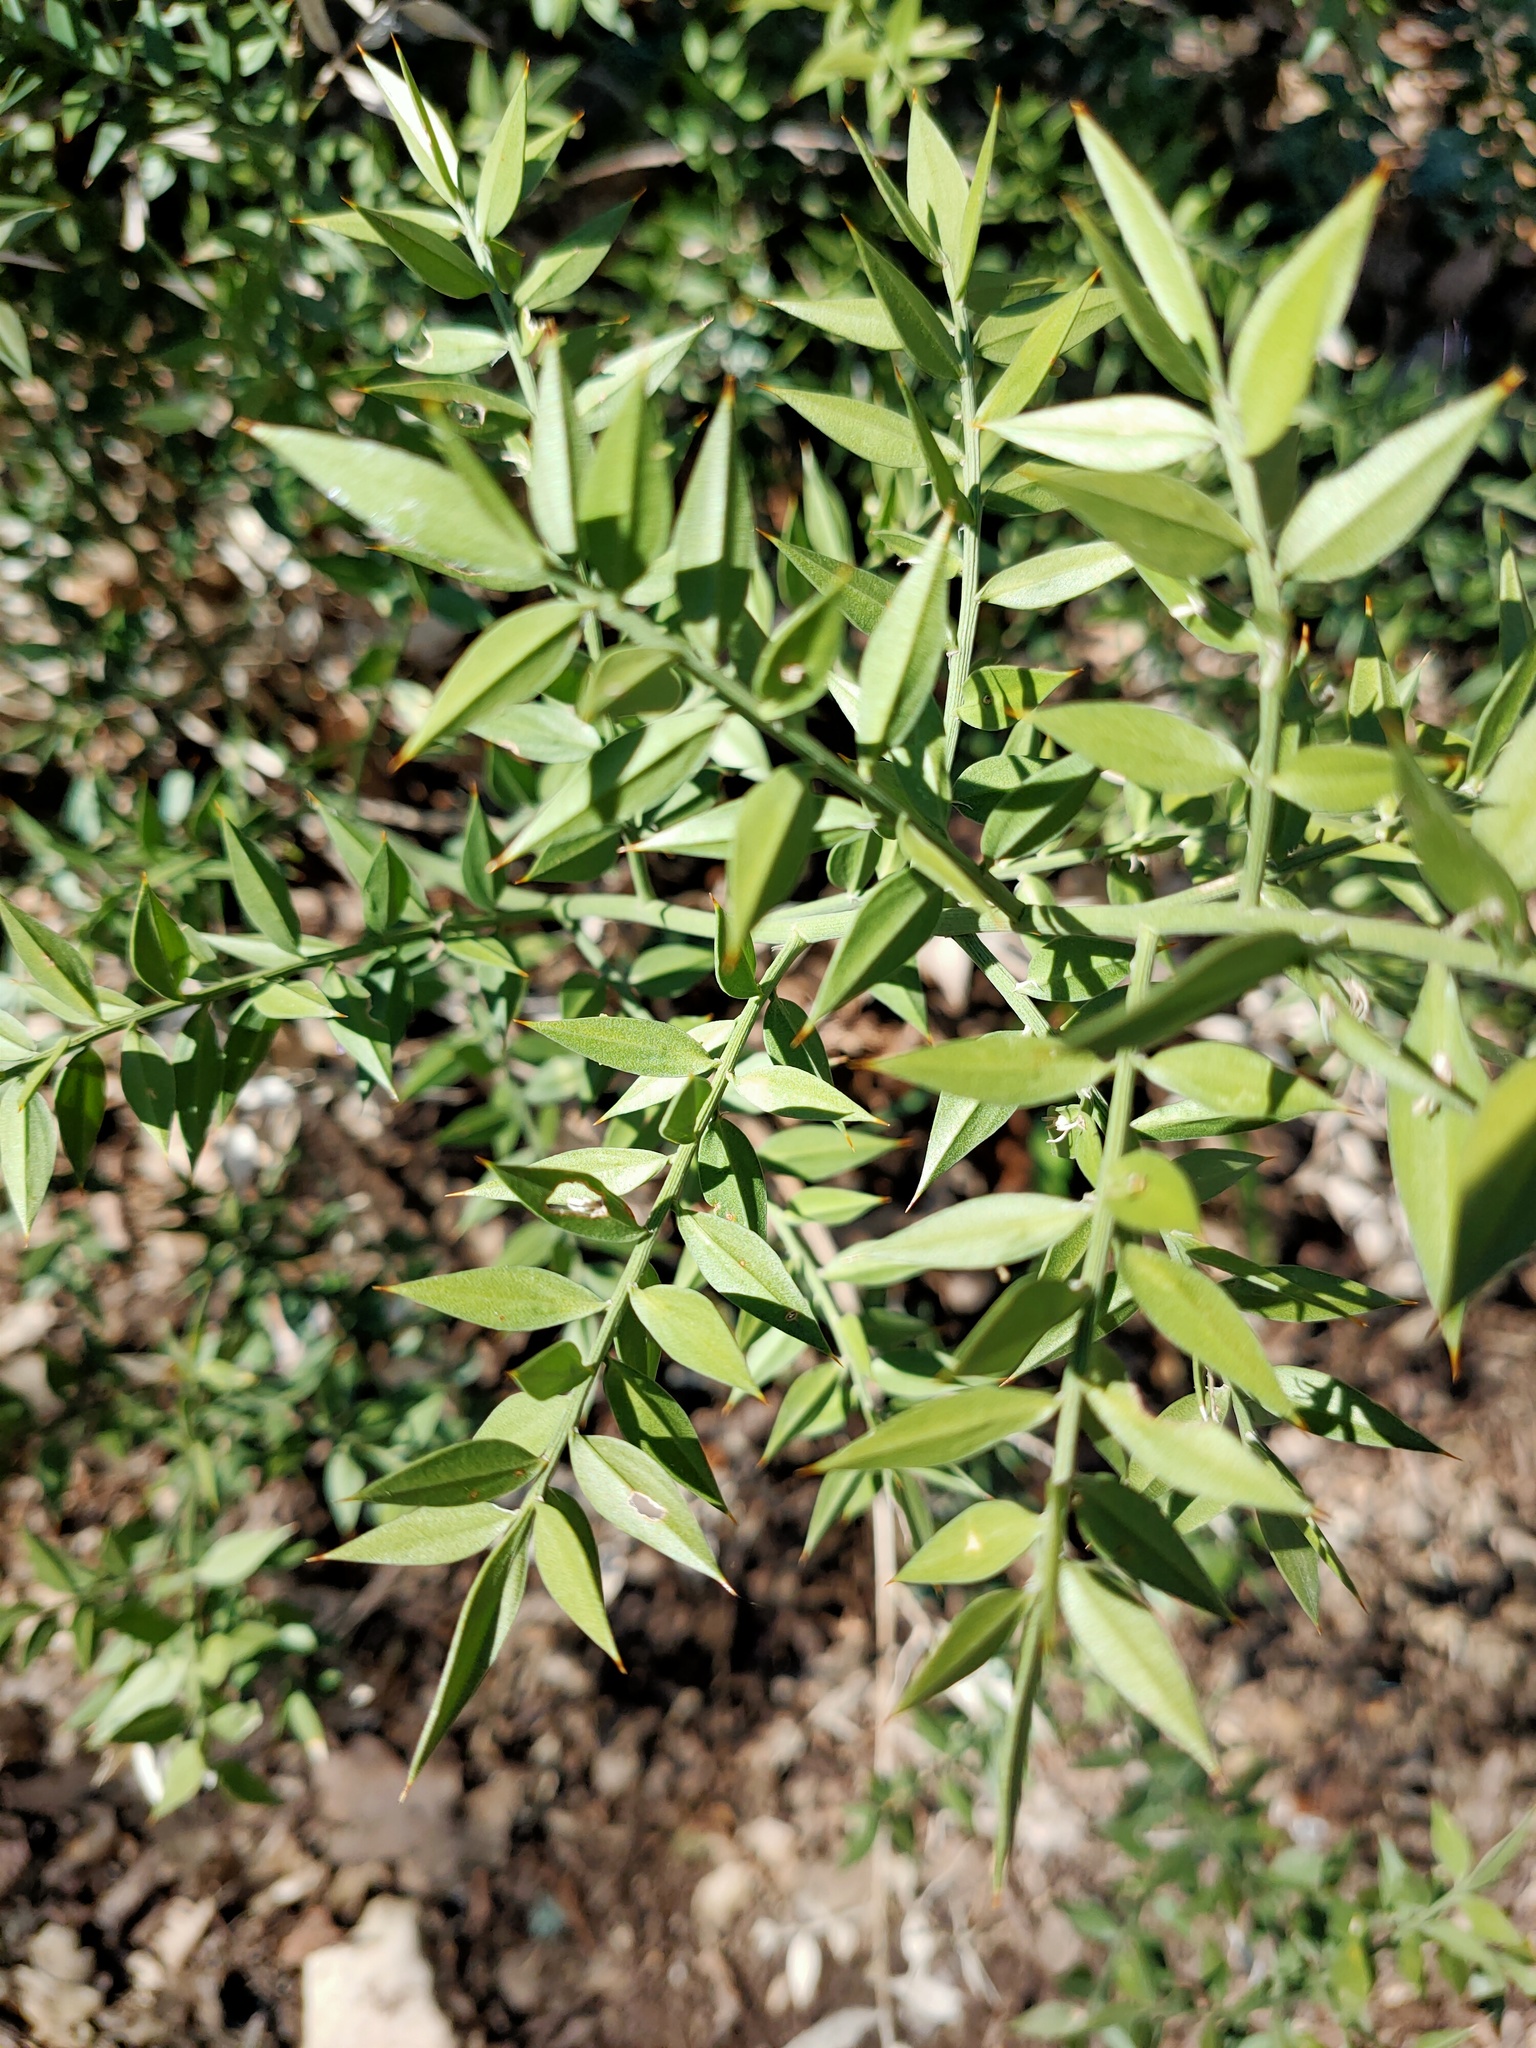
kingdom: Plantae
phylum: Tracheophyta
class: Liliopsida
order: Asparagales
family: Asparagaceae
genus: Ruscus
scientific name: Ruscus aculeatus
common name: Butcher's-broom
